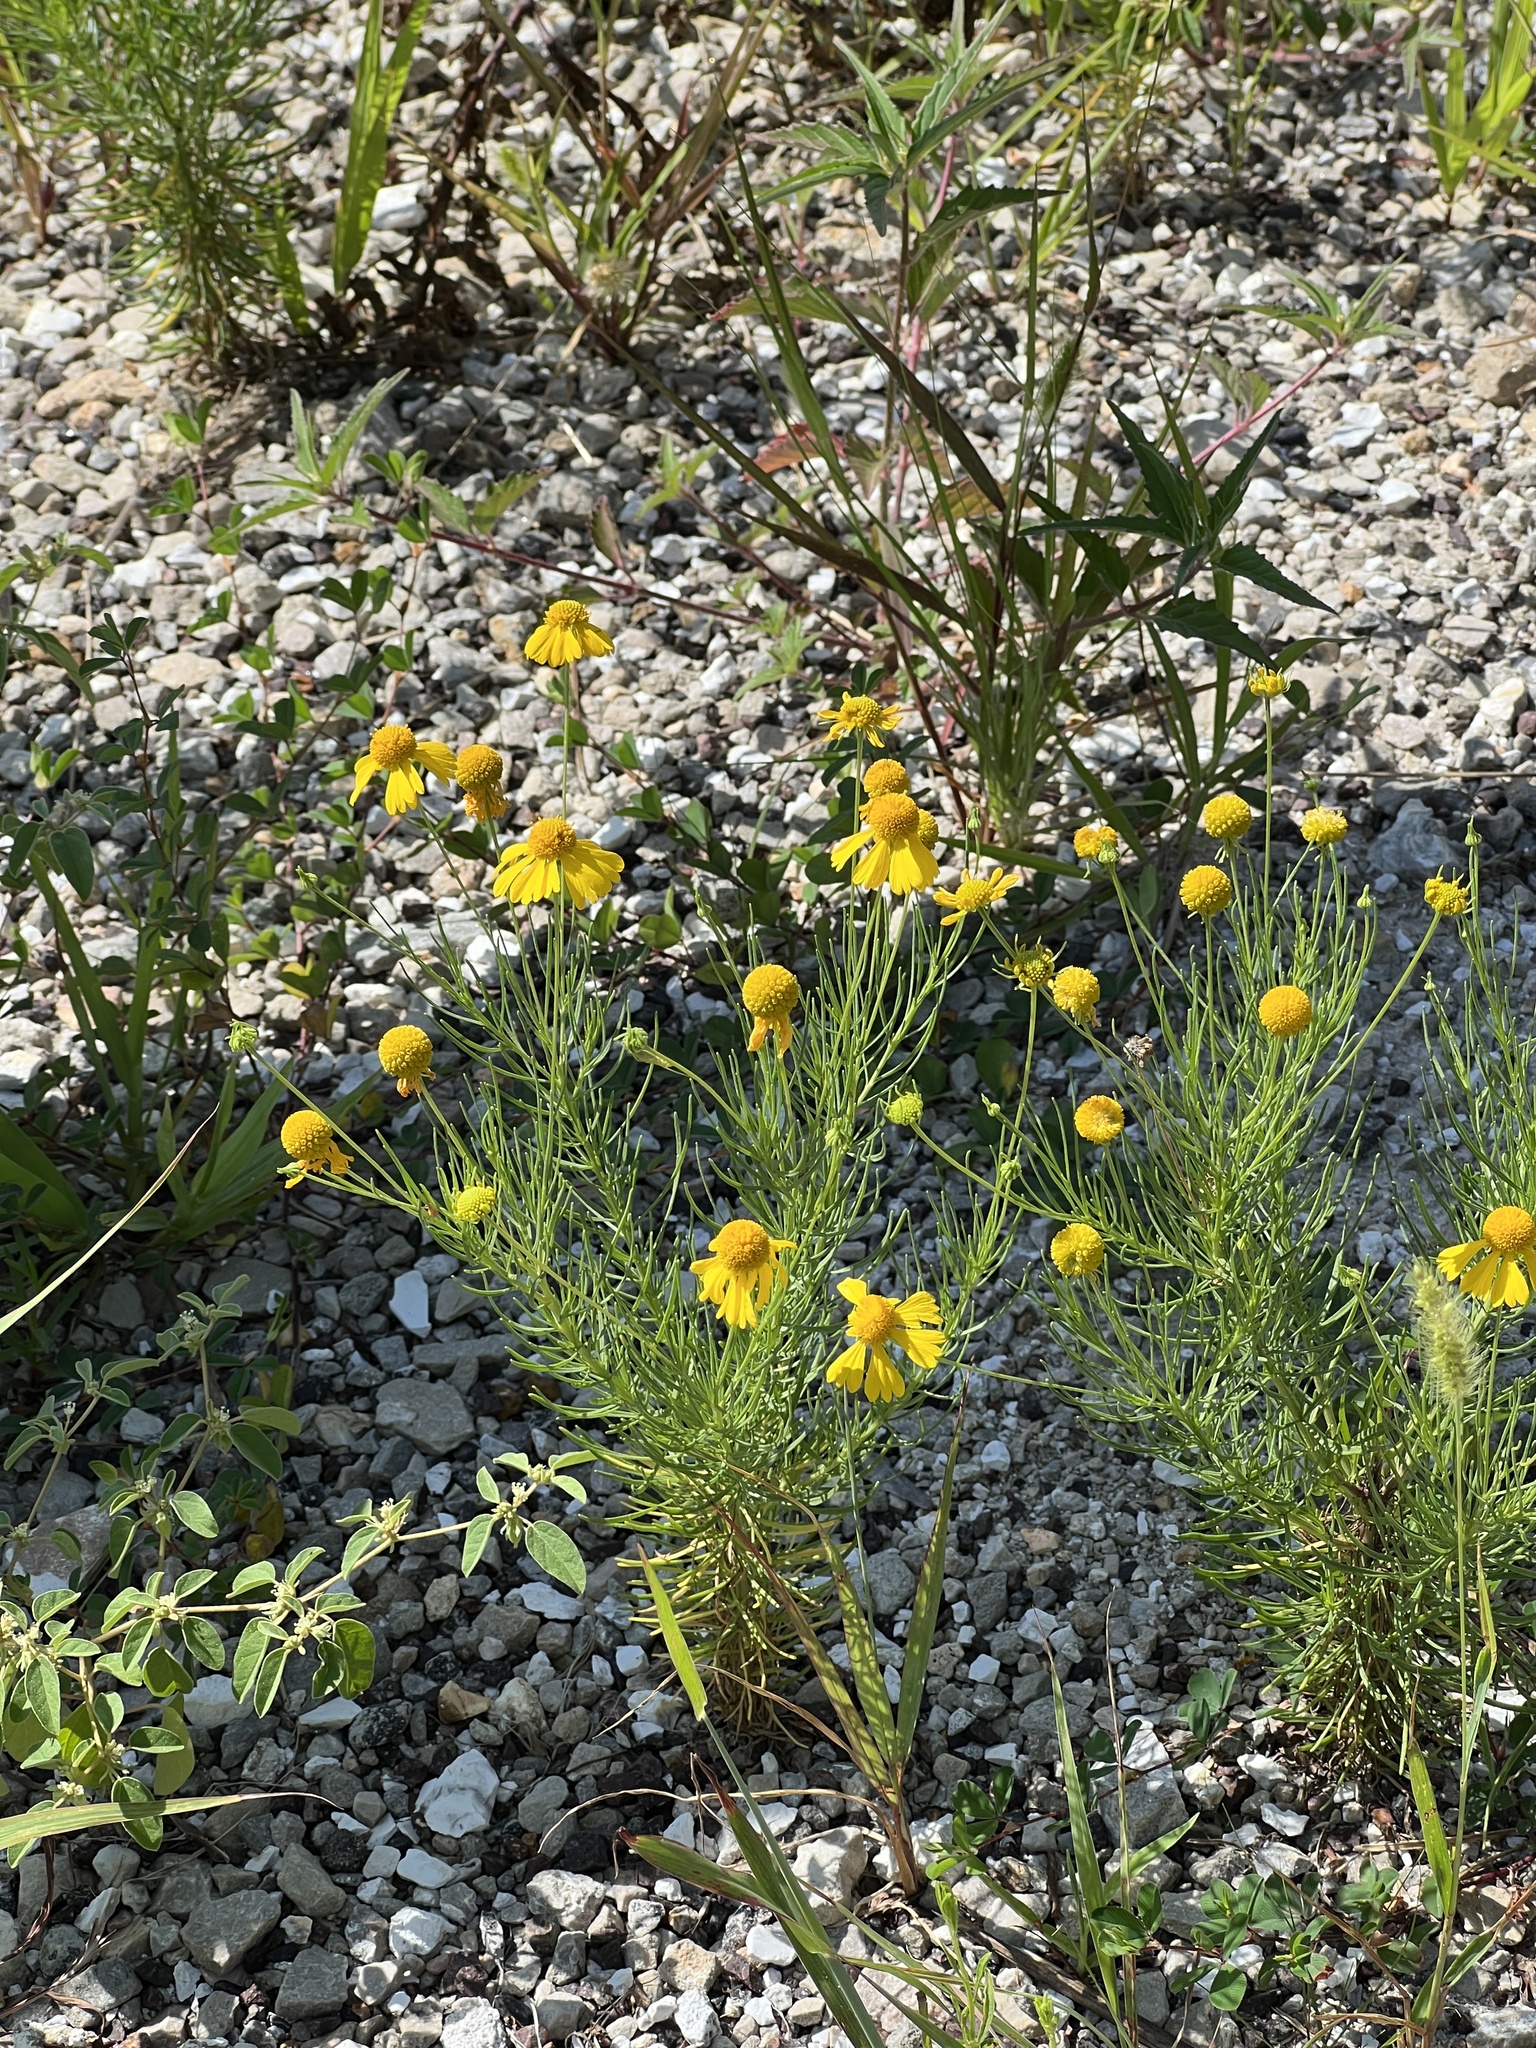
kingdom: Plantae
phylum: Tracheophyta
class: Magnoliopsida
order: Asterales
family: Asteraceae
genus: Helenium
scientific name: Helenium amarum
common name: Bitter sneezeweed
